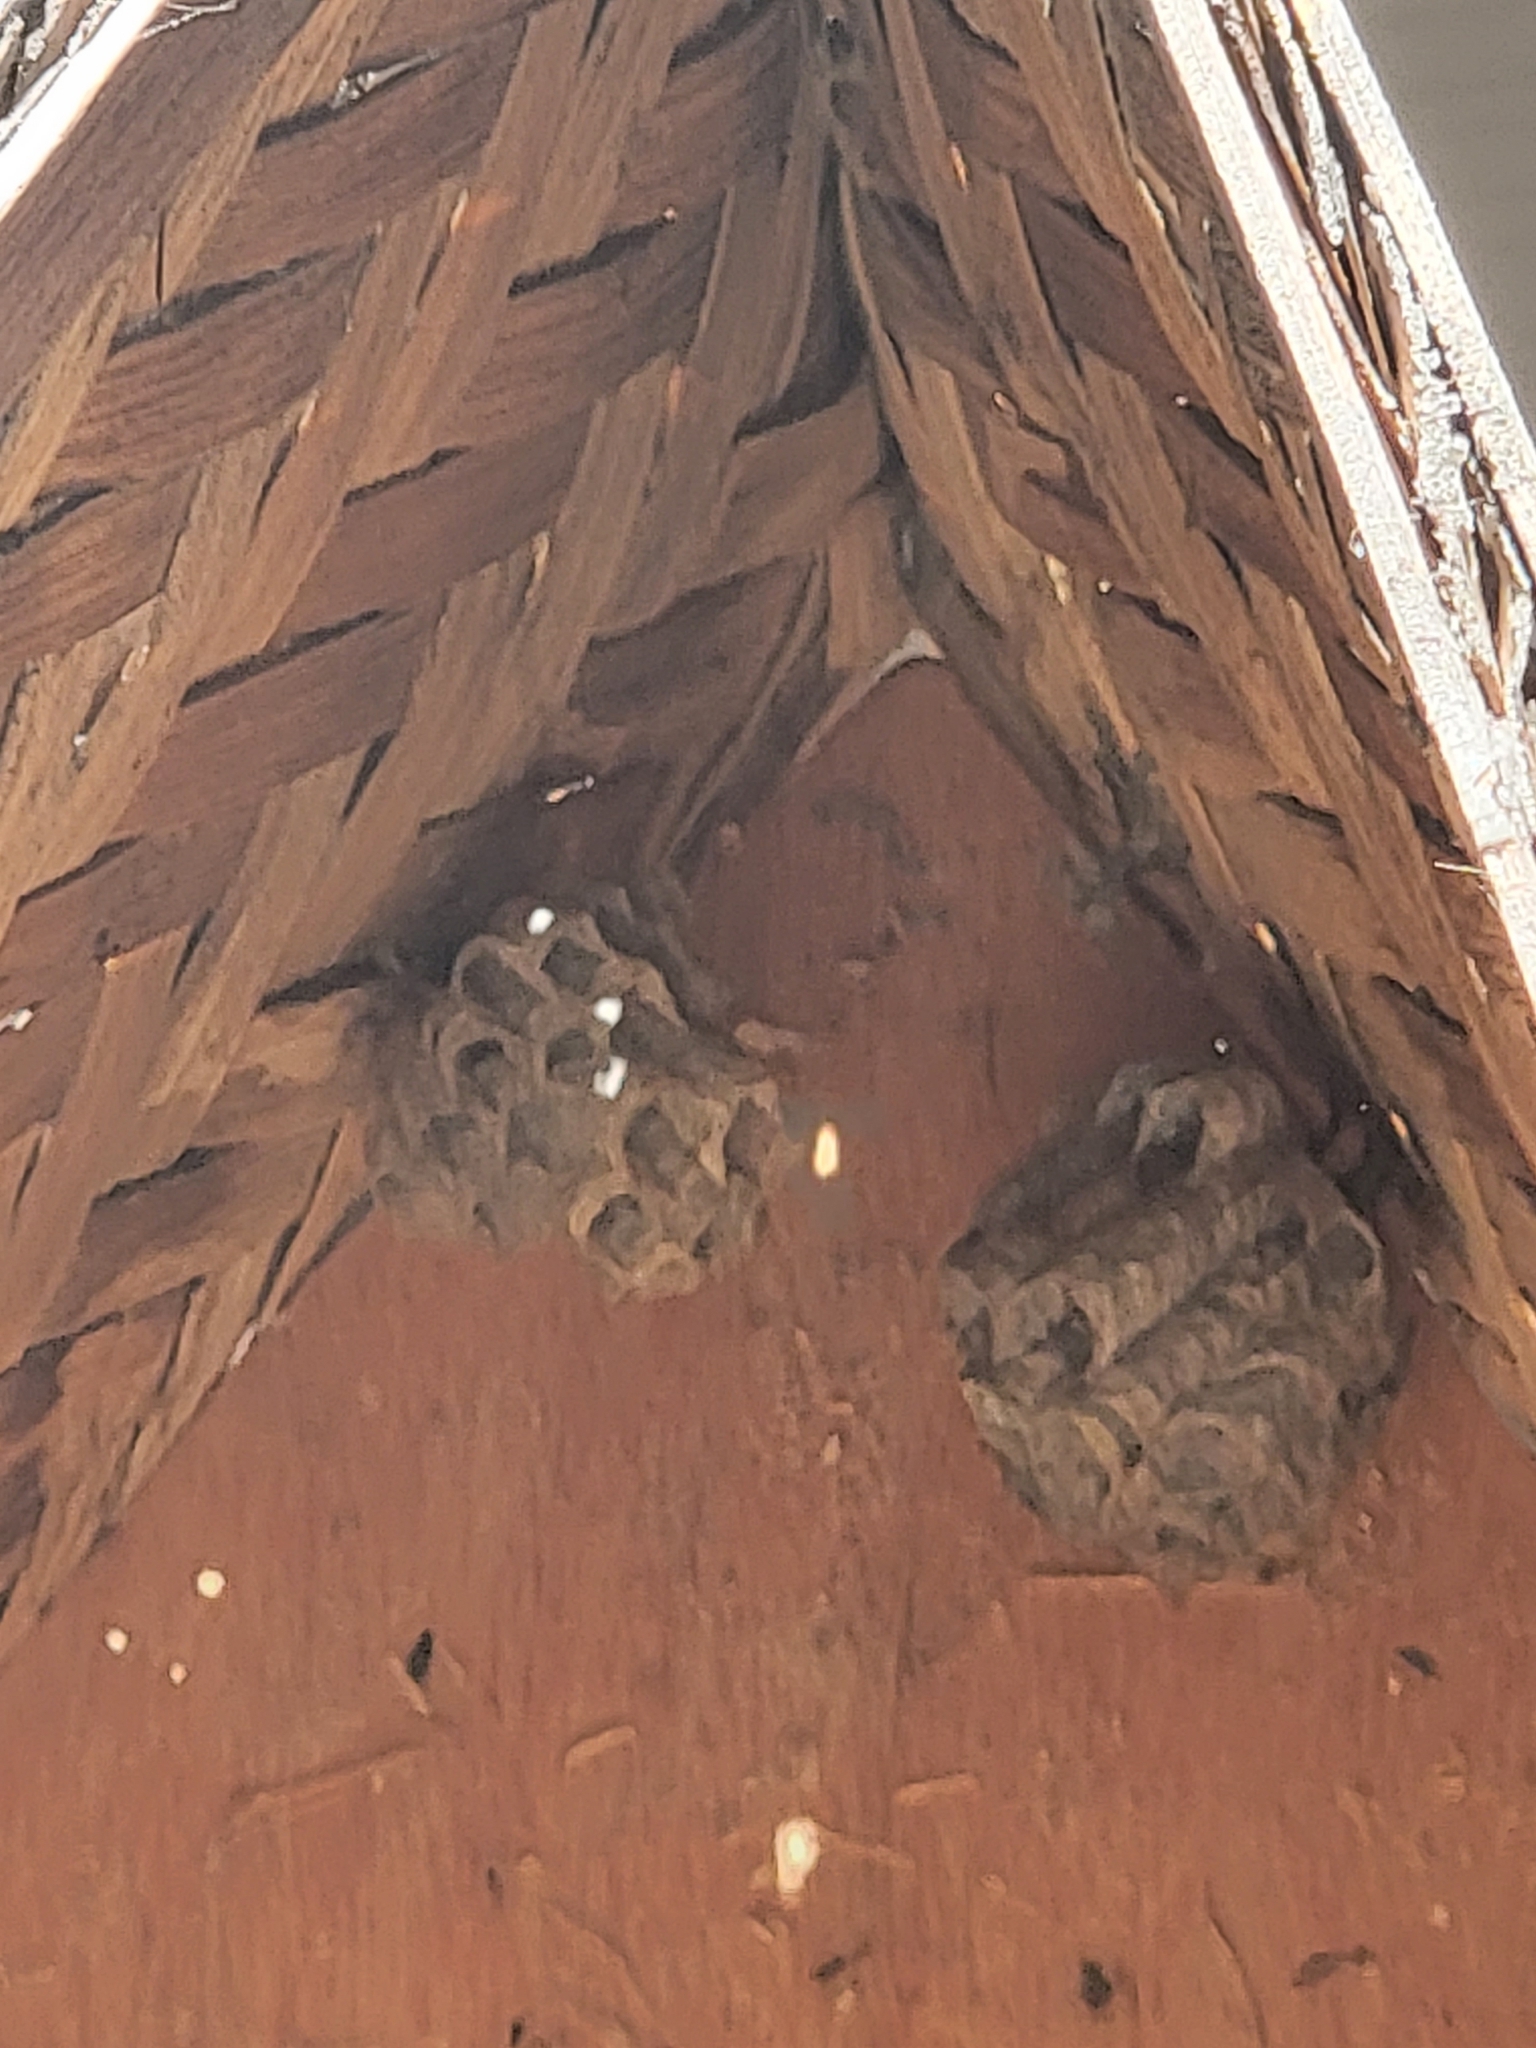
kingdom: Animalia
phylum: Arthropoda
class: Insecta
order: Hymenoptera
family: Eumenidae
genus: Polistes
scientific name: Polistes
